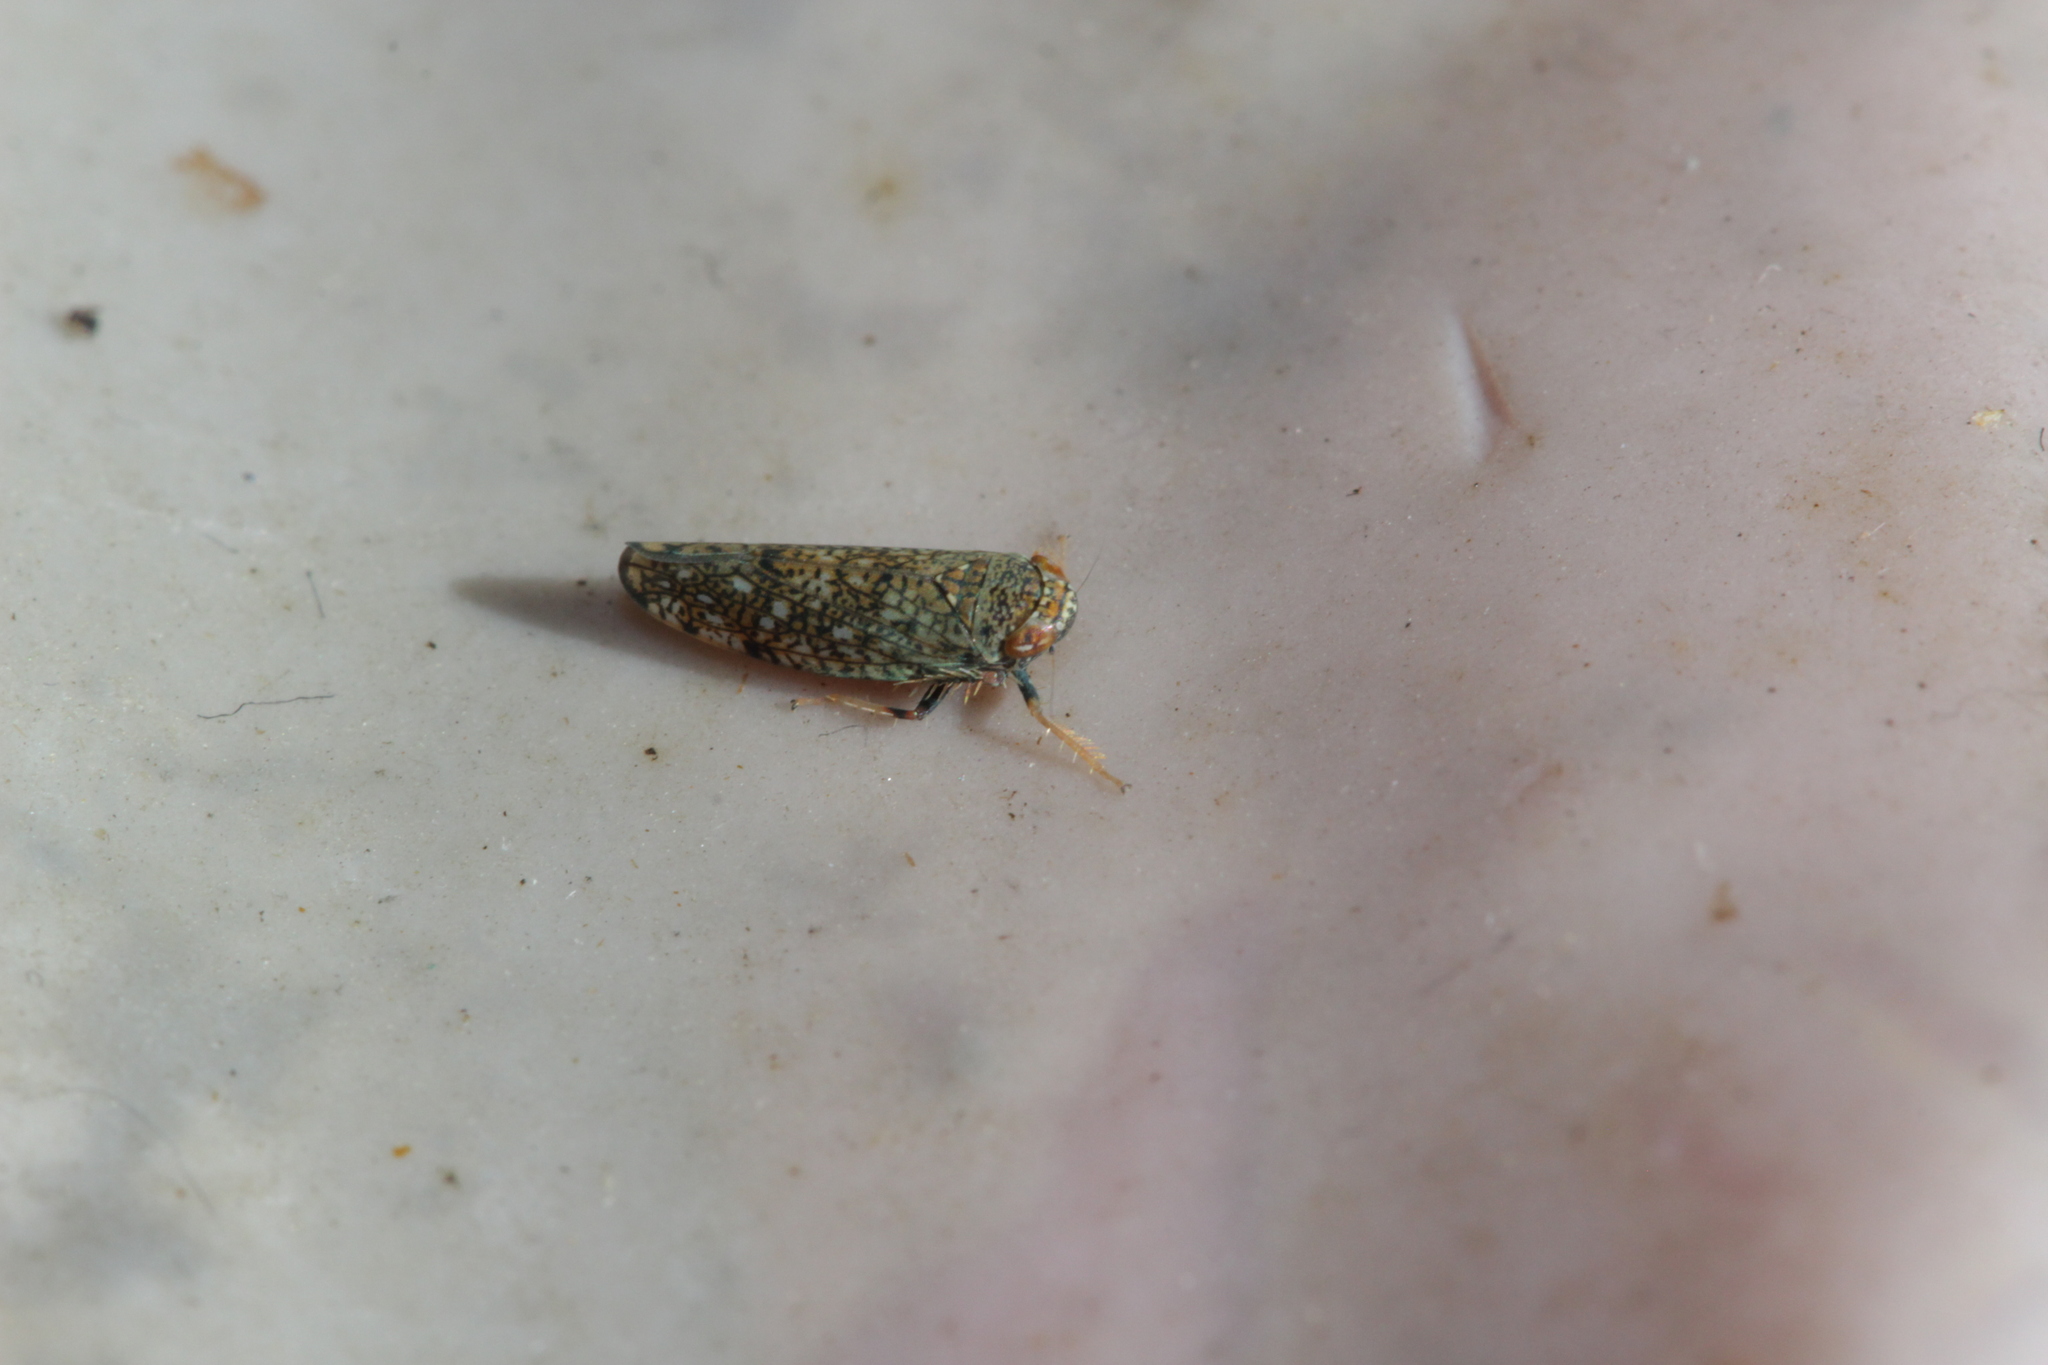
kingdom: Animalia
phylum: Arthropoda
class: Insecta
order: Hemiptera
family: Cicadellidae
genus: Orientus
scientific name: Orientus ishidae
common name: Japanese leafhopper
